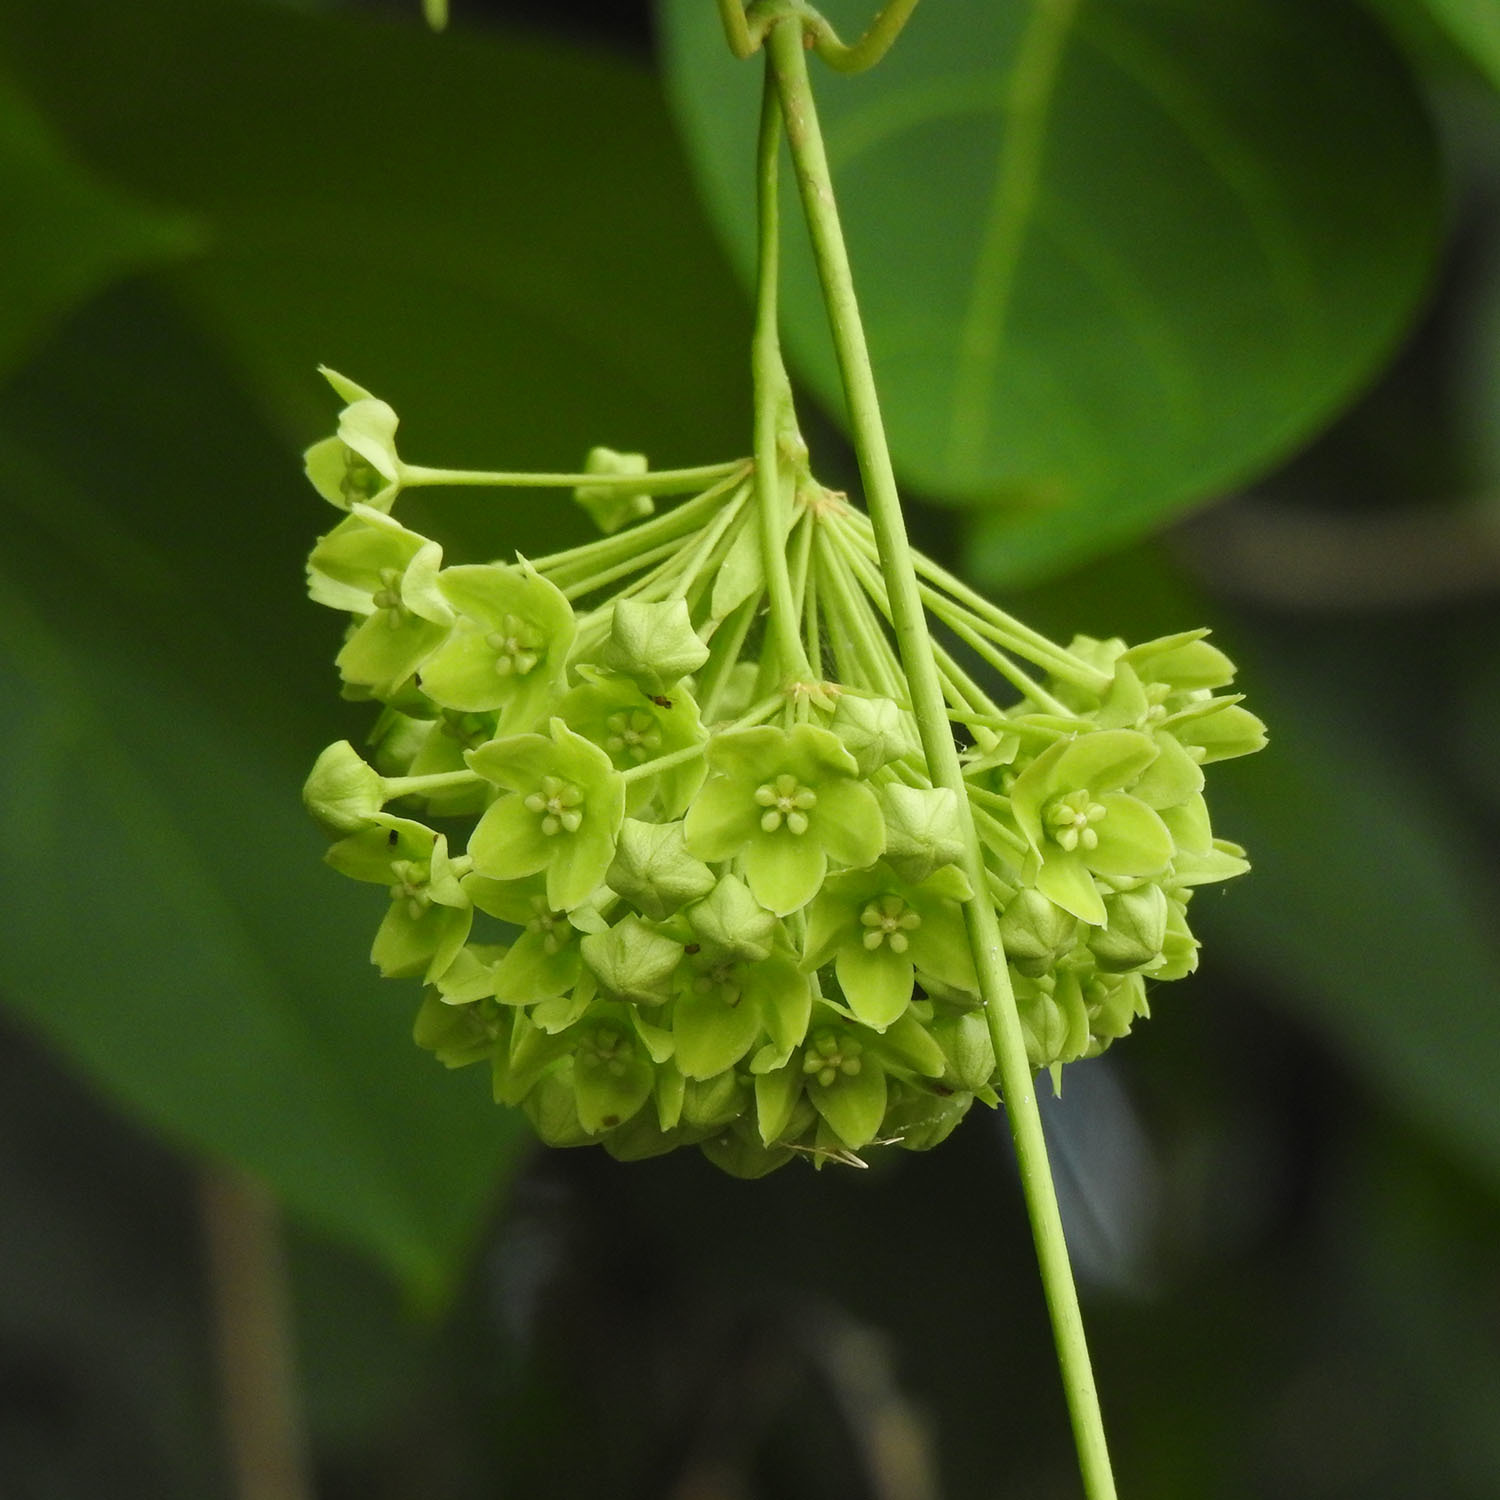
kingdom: Plantae
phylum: Tracheophyta
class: Magnoliopsida
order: Gentianales
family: Apocynaceae
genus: Stephanotis
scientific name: Stephanotis volubilis
